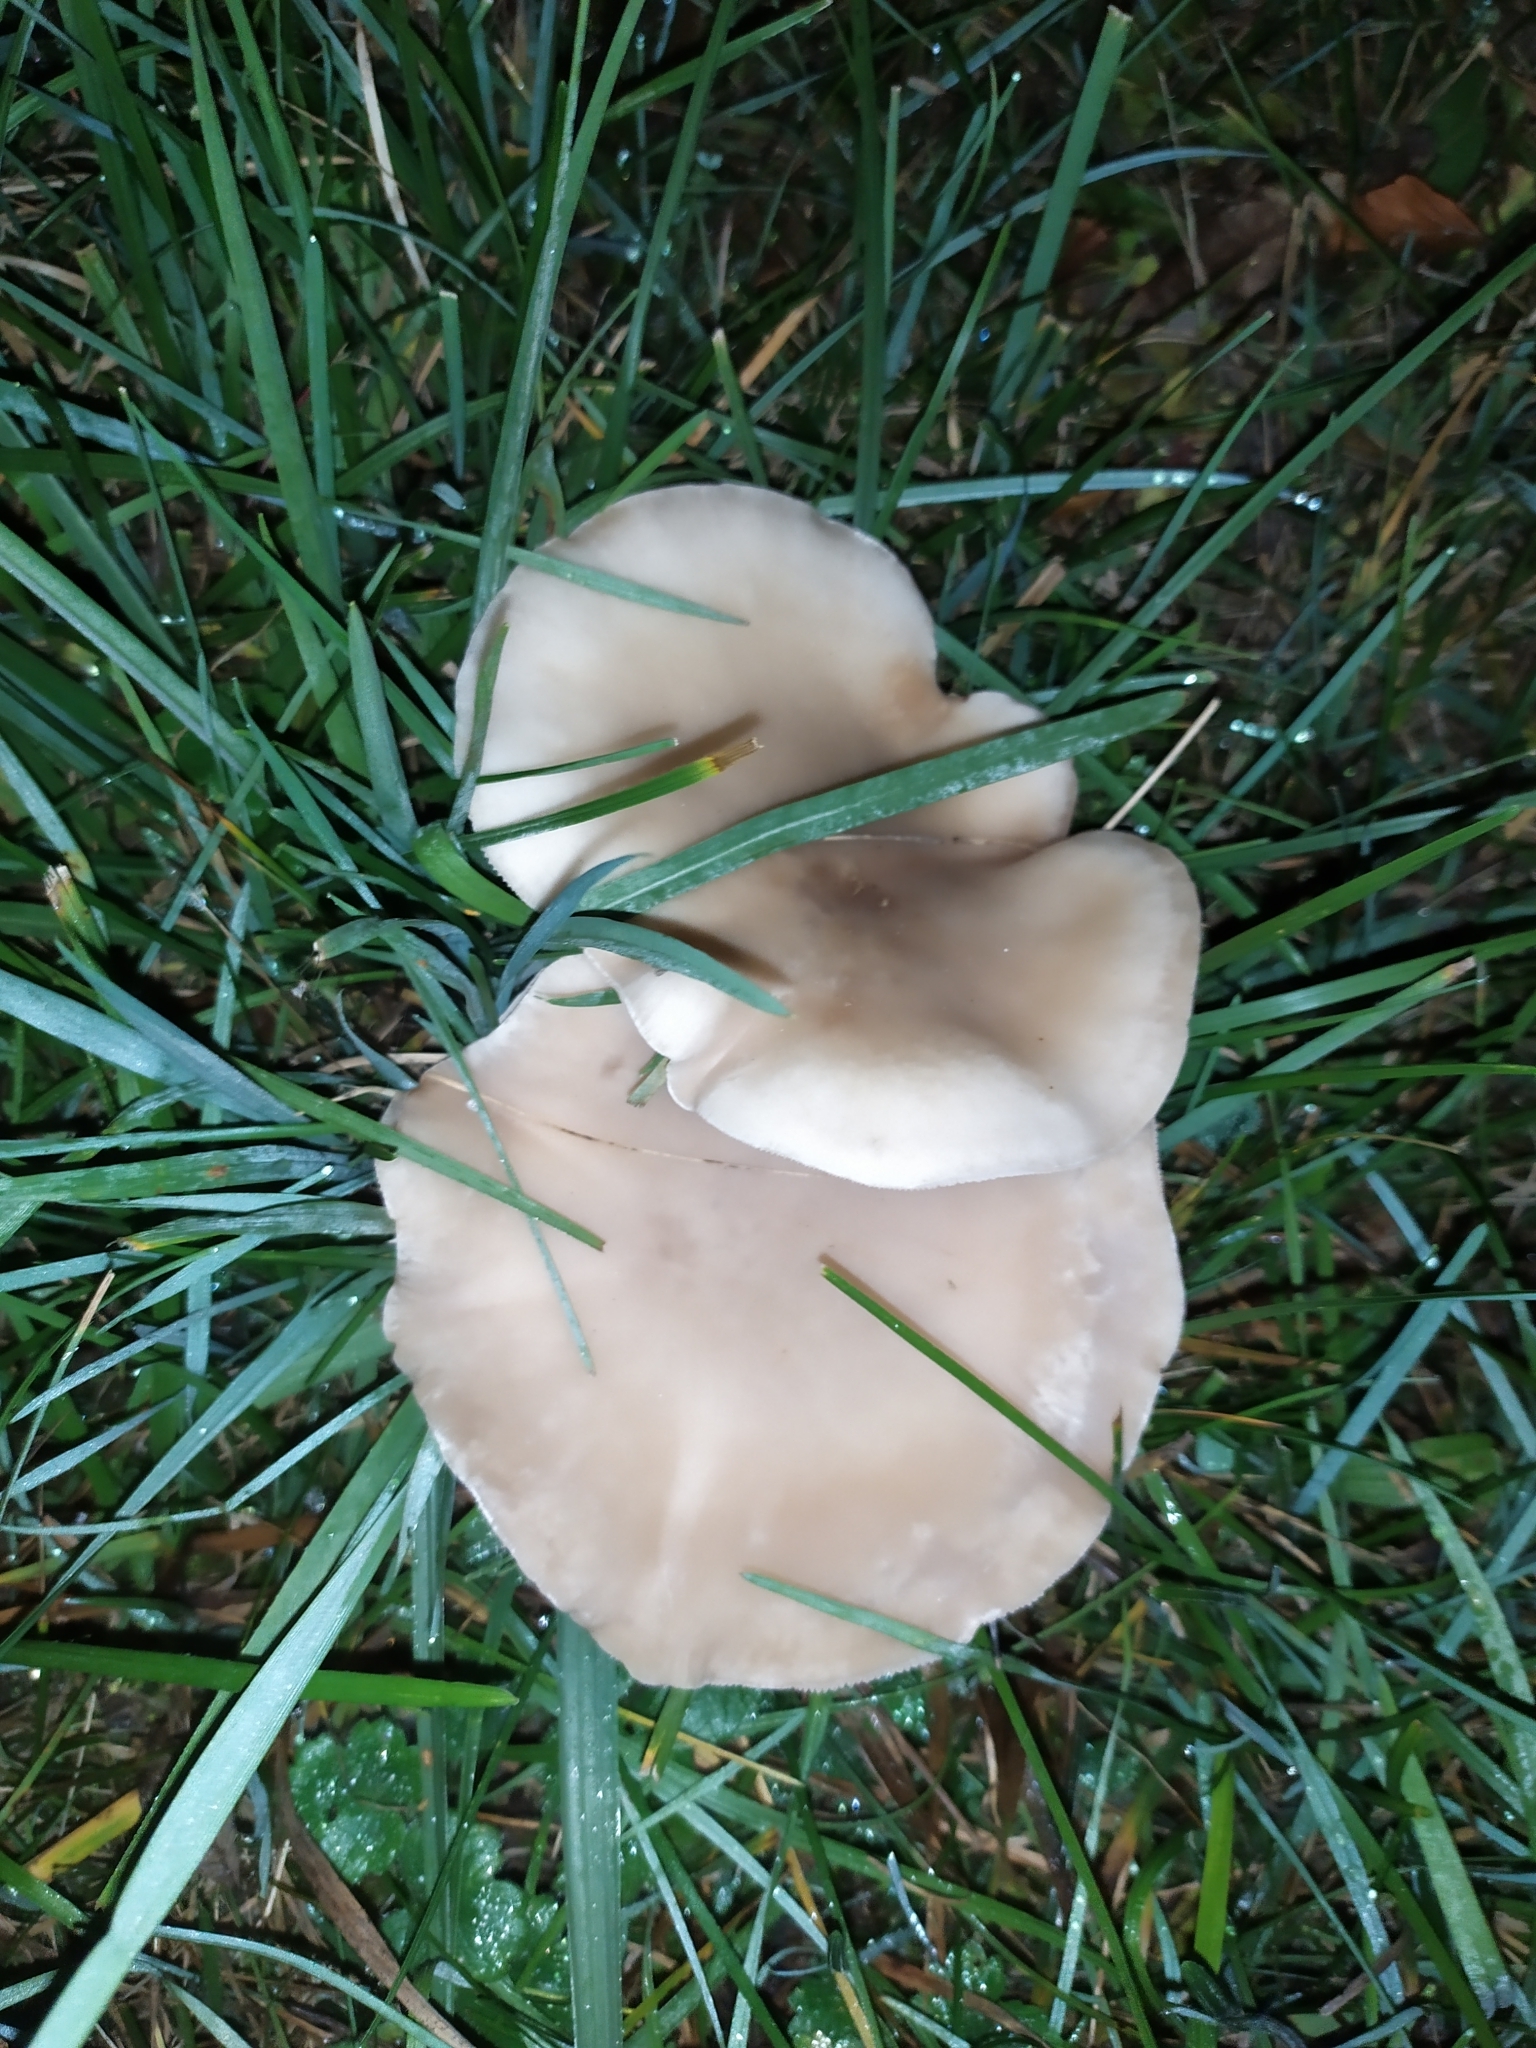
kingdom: Fungi
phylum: Basidiomycota
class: Agaricomycetes
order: Agaricales
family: Omphalotaceae
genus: Collybiopsis
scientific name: Collybiopsis peronata
